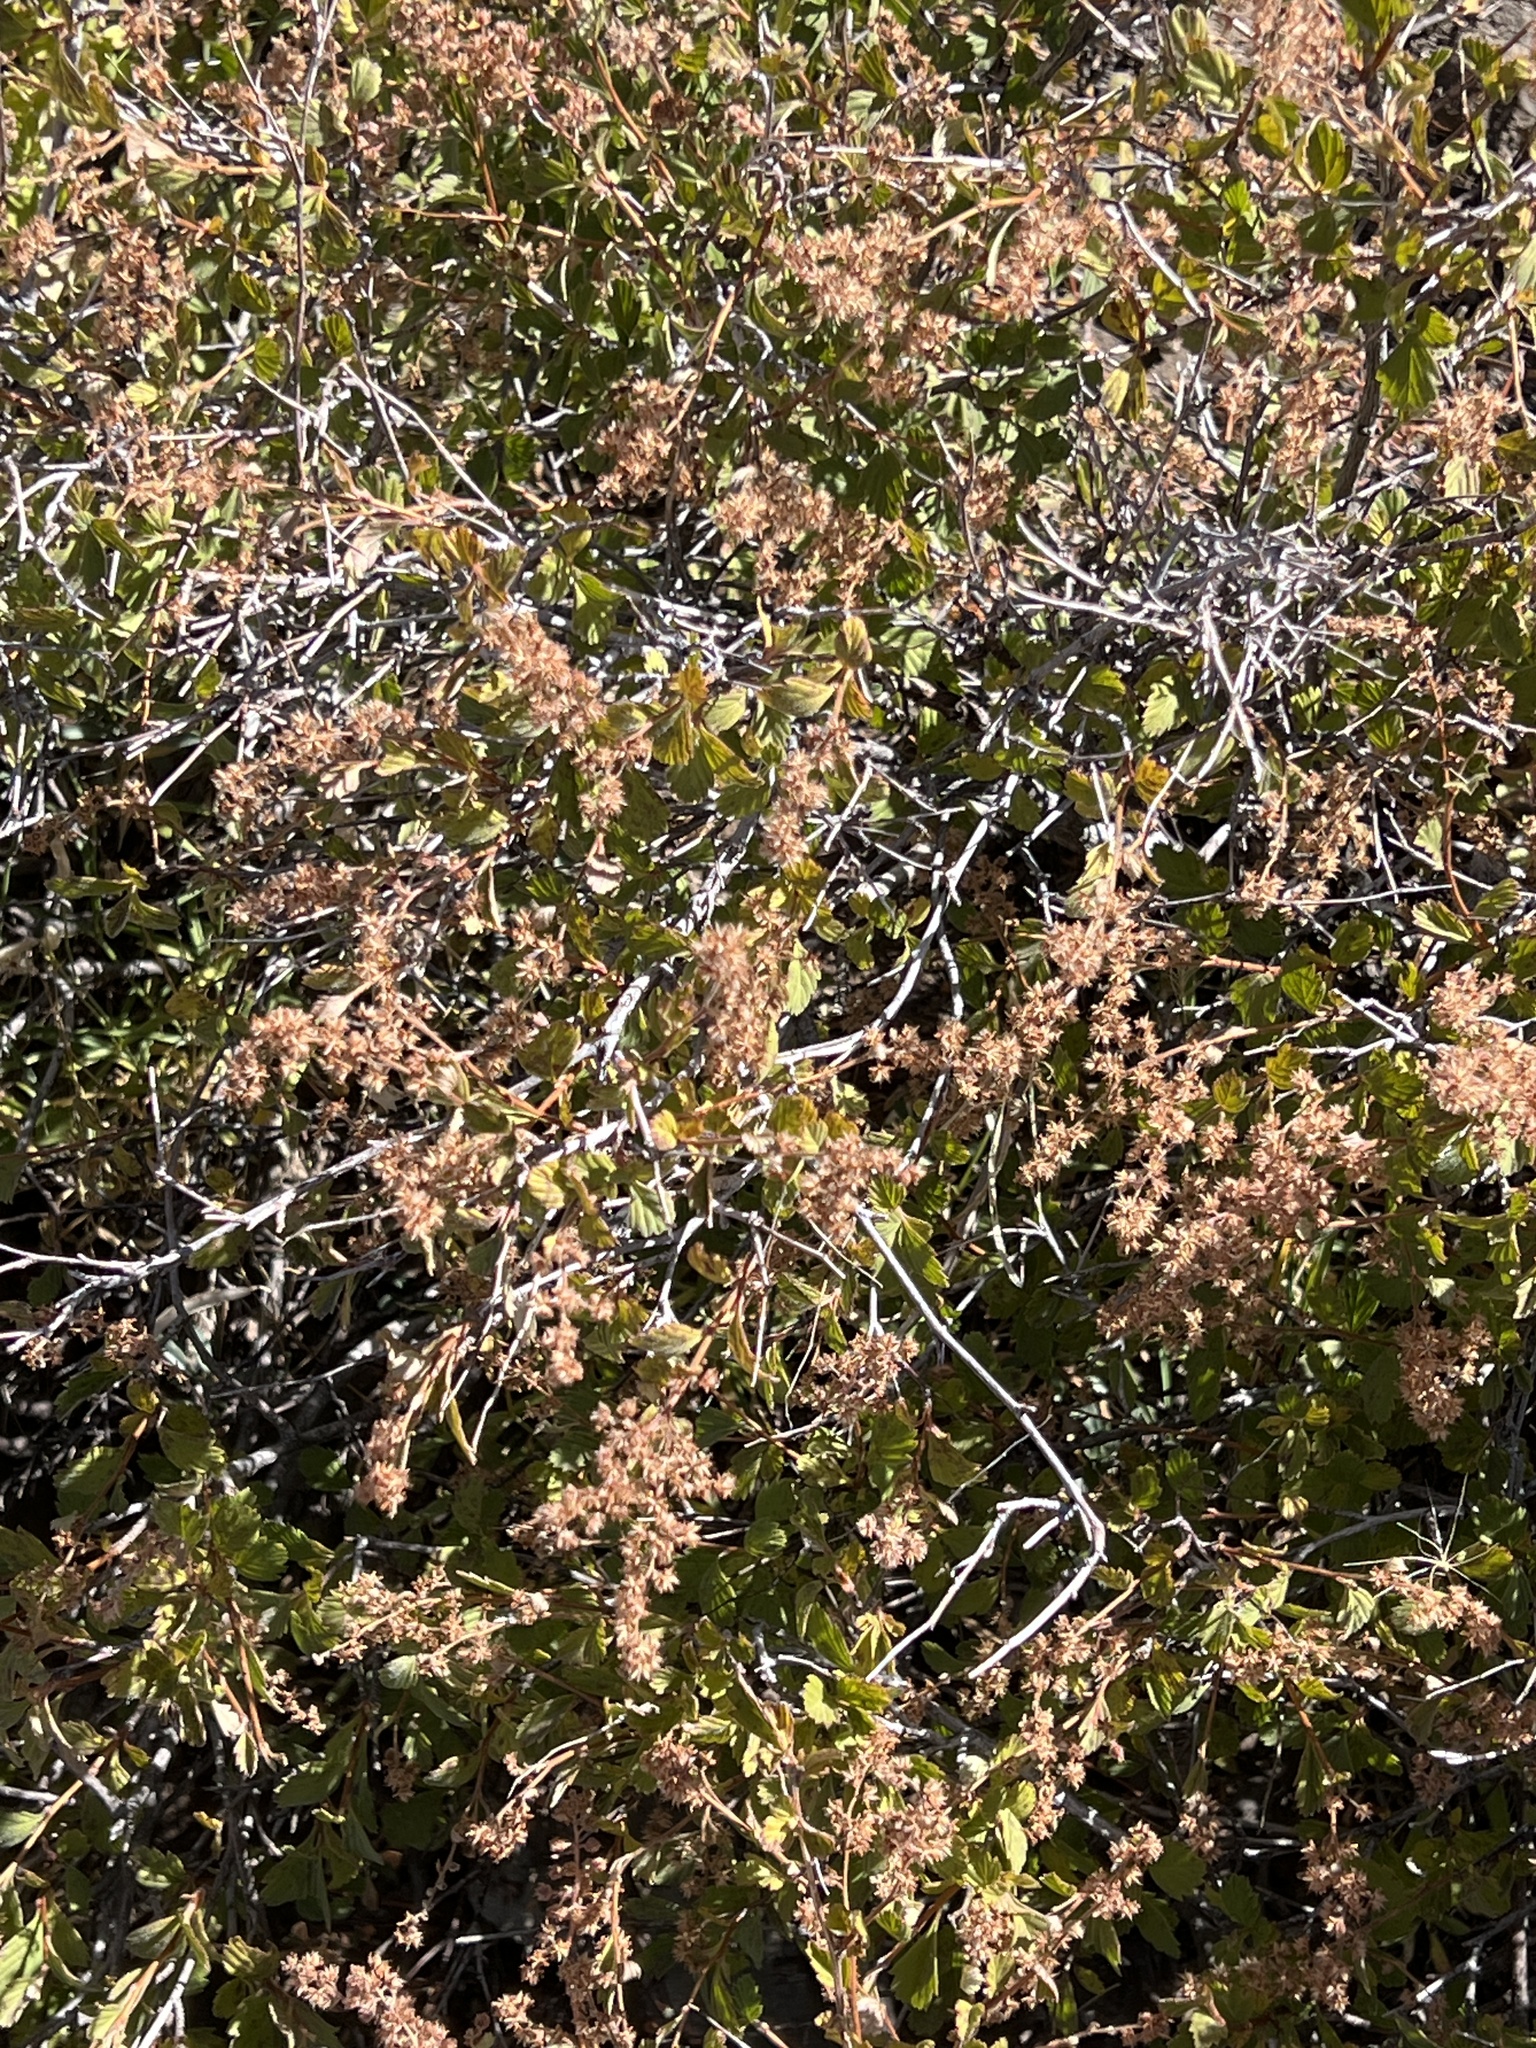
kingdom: Plantae
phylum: Tracheophyta
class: Magnoliopsida
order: Rosales
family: Rosaceae
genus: Holodiscus
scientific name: Holodiscus discolor
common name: Oceanspray
